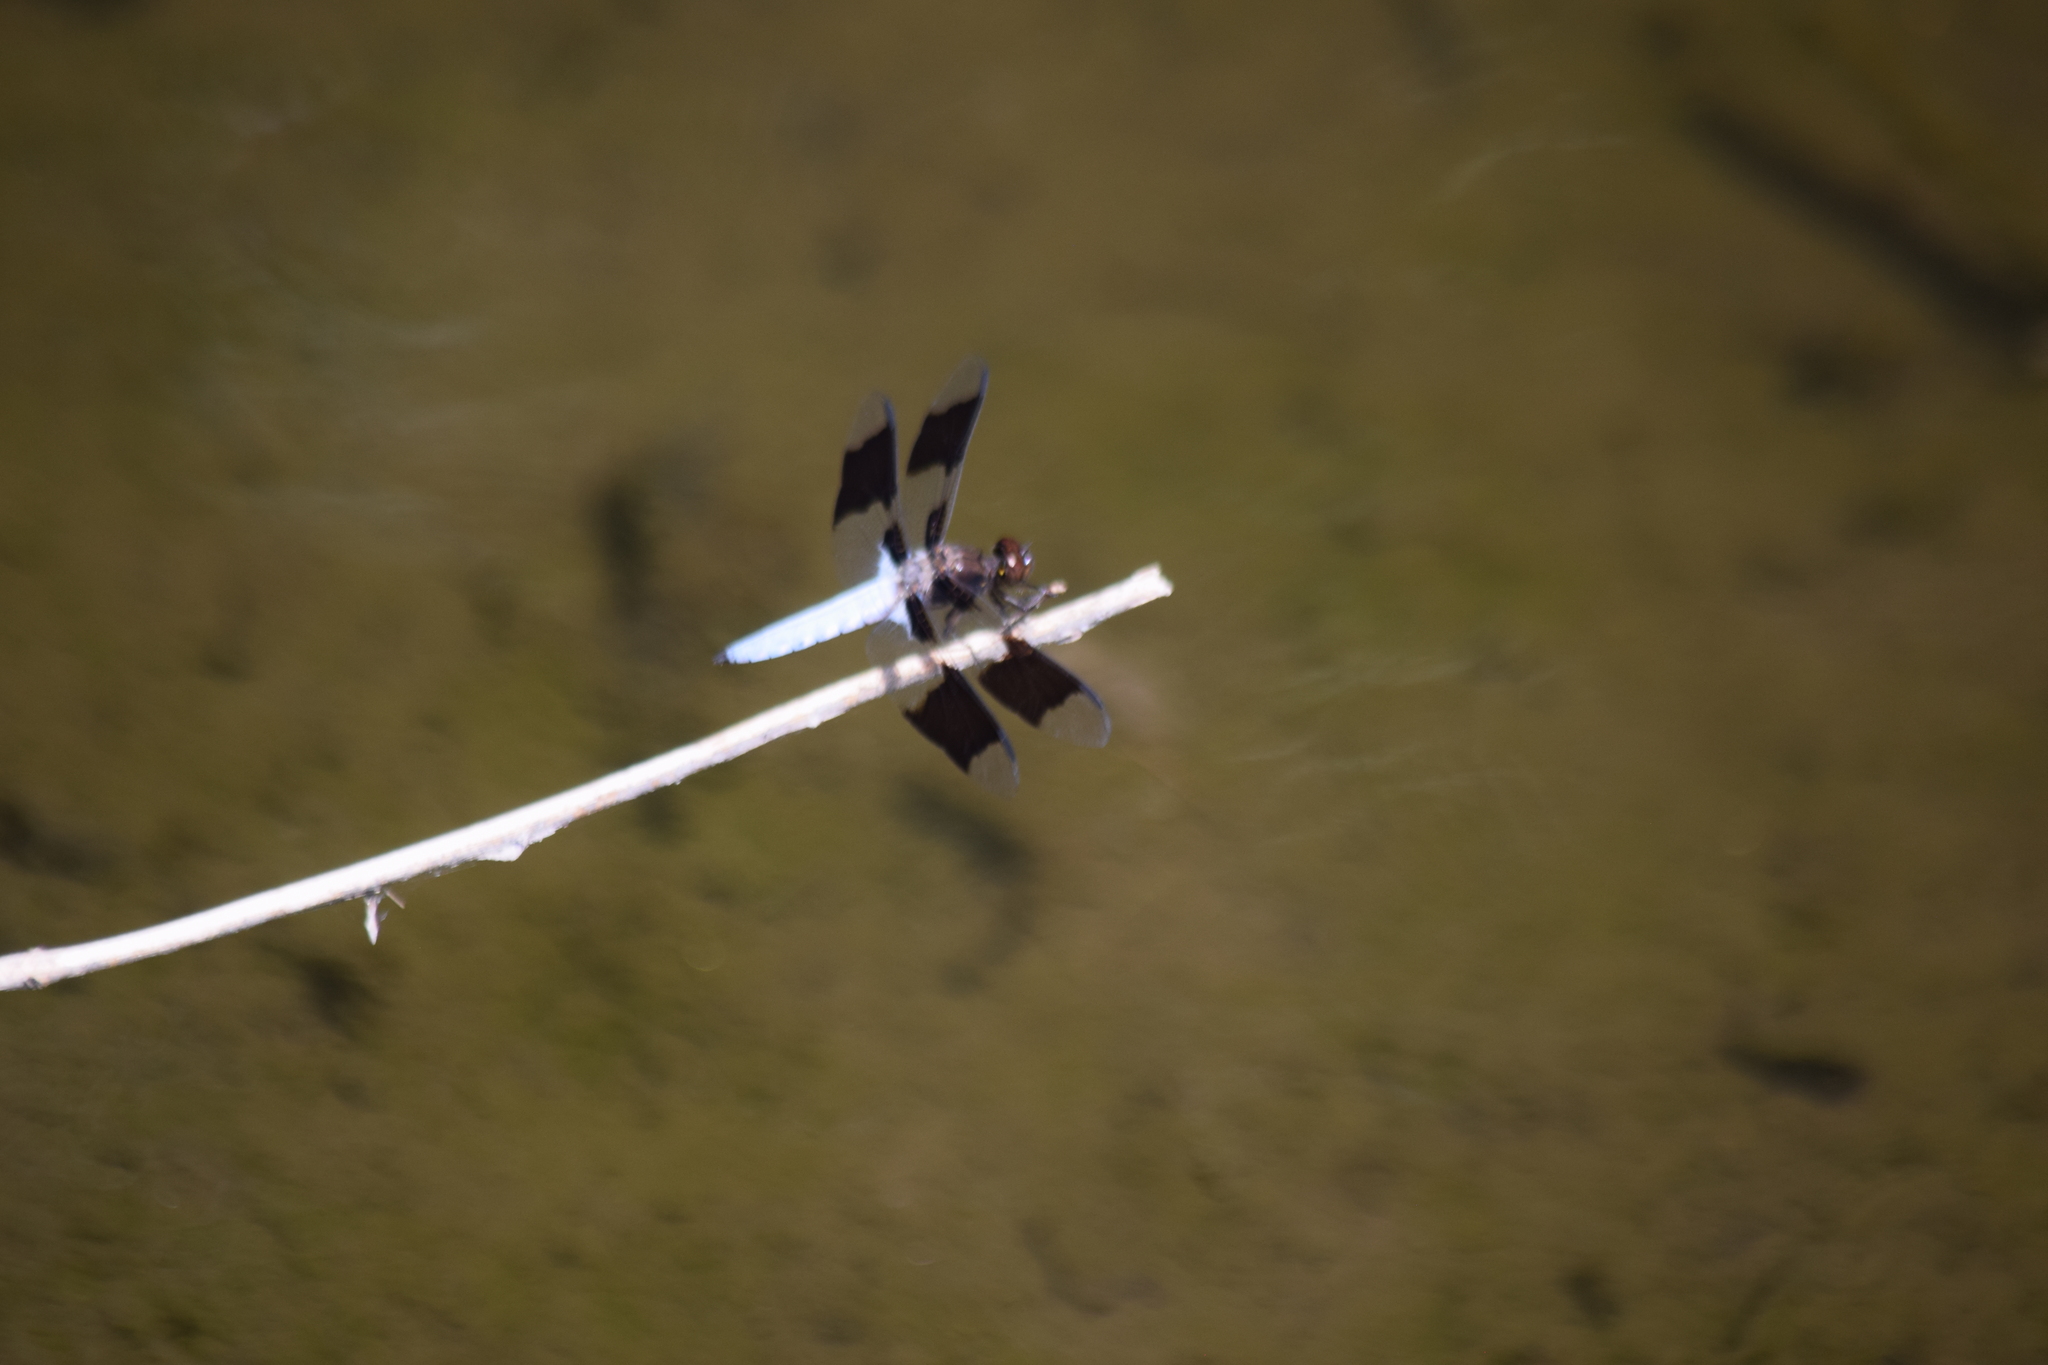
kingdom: Animalia
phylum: Arthropoda
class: Insecta
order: Odonata
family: Libellulidae
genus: Plathemis
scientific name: Plathemis lydia
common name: Common whitetail
